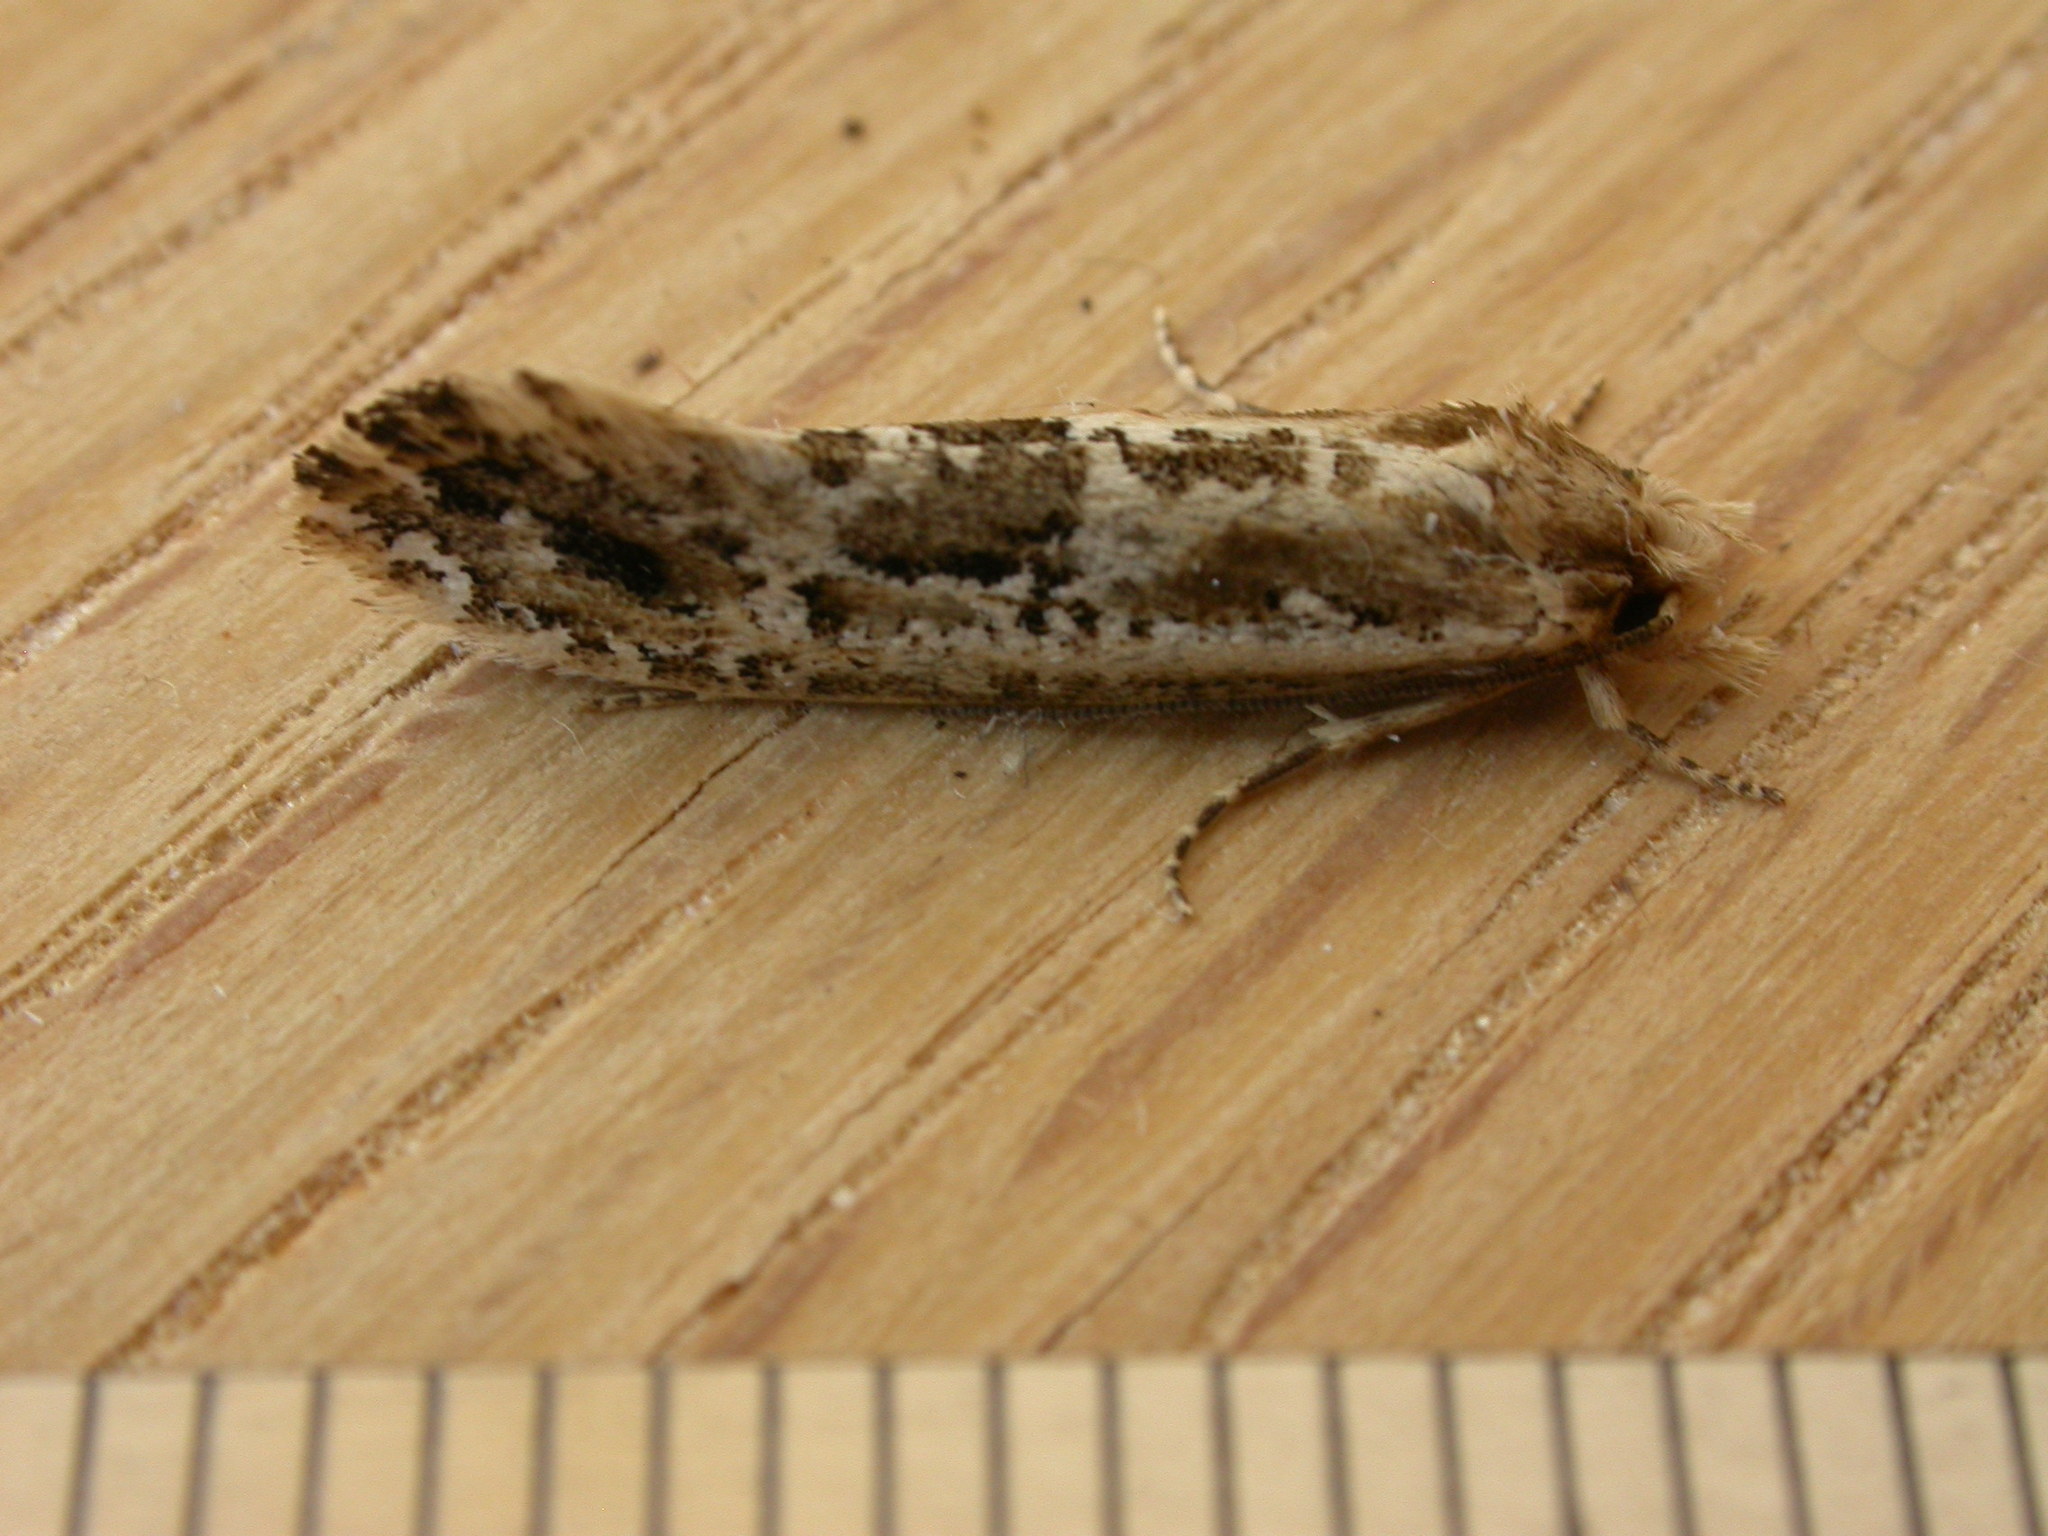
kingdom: Animalia
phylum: Arthropoda
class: Insecta
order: Lepidoptera
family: Tineidae
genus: Moerarchis
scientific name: Moerarchis inconcisella
